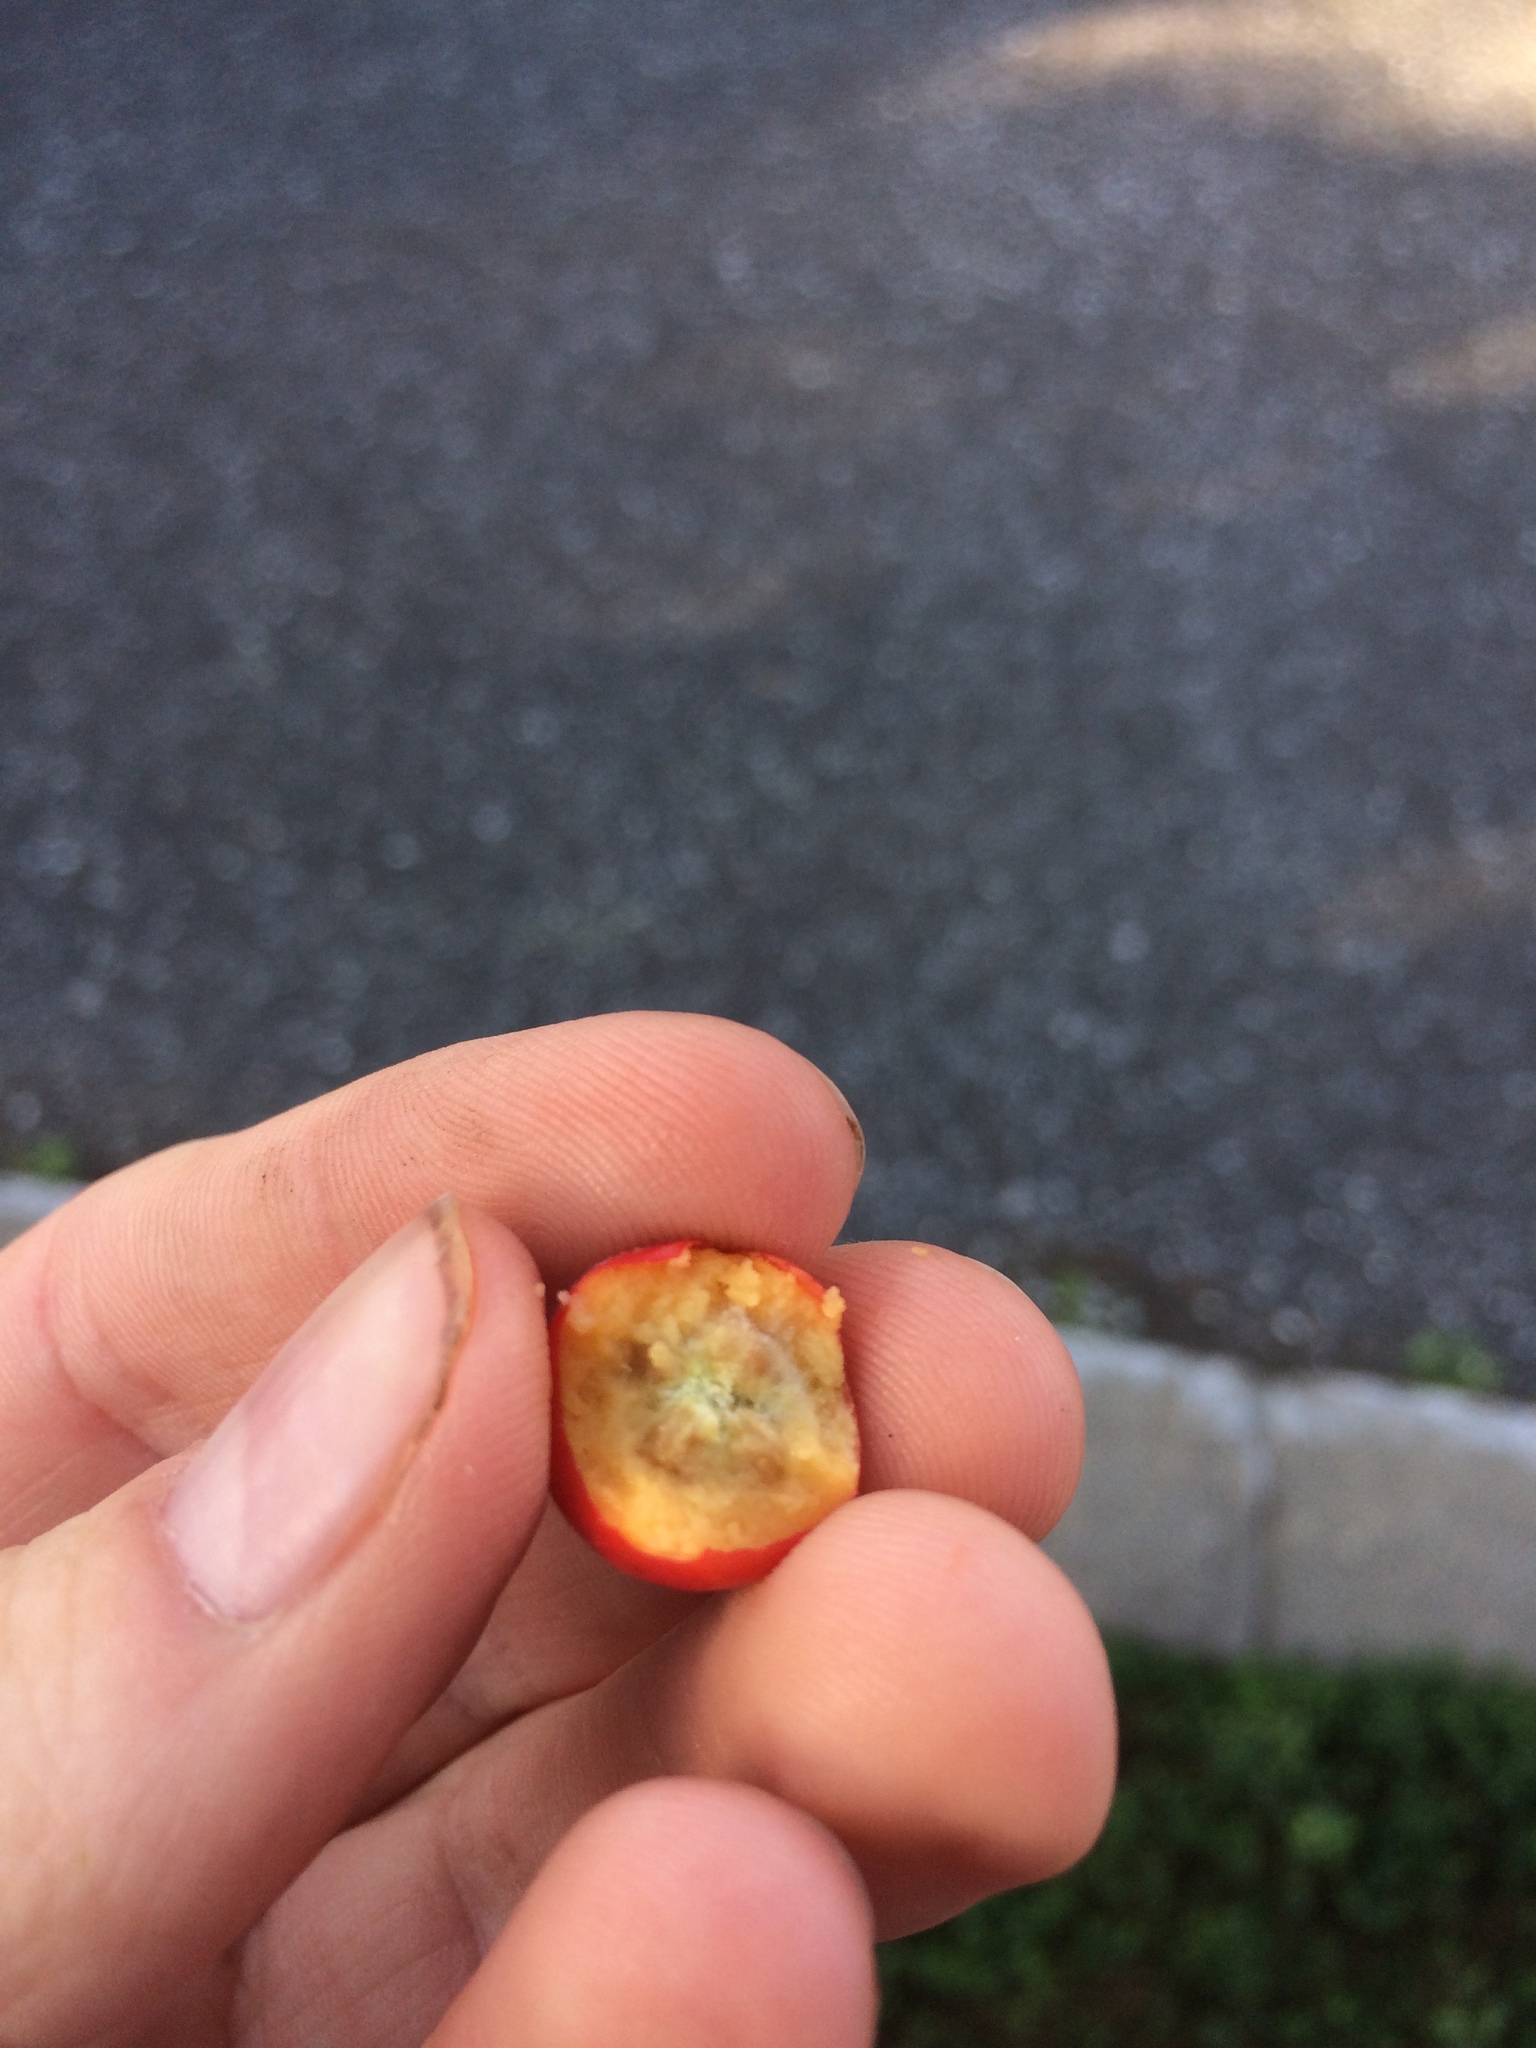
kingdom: Plantae
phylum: Tracheophyta
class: Magnoliopsida
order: Rosales
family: Rosaceae
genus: Crataegus
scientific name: Crataegus submollis
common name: Hairy cockspurthorn
